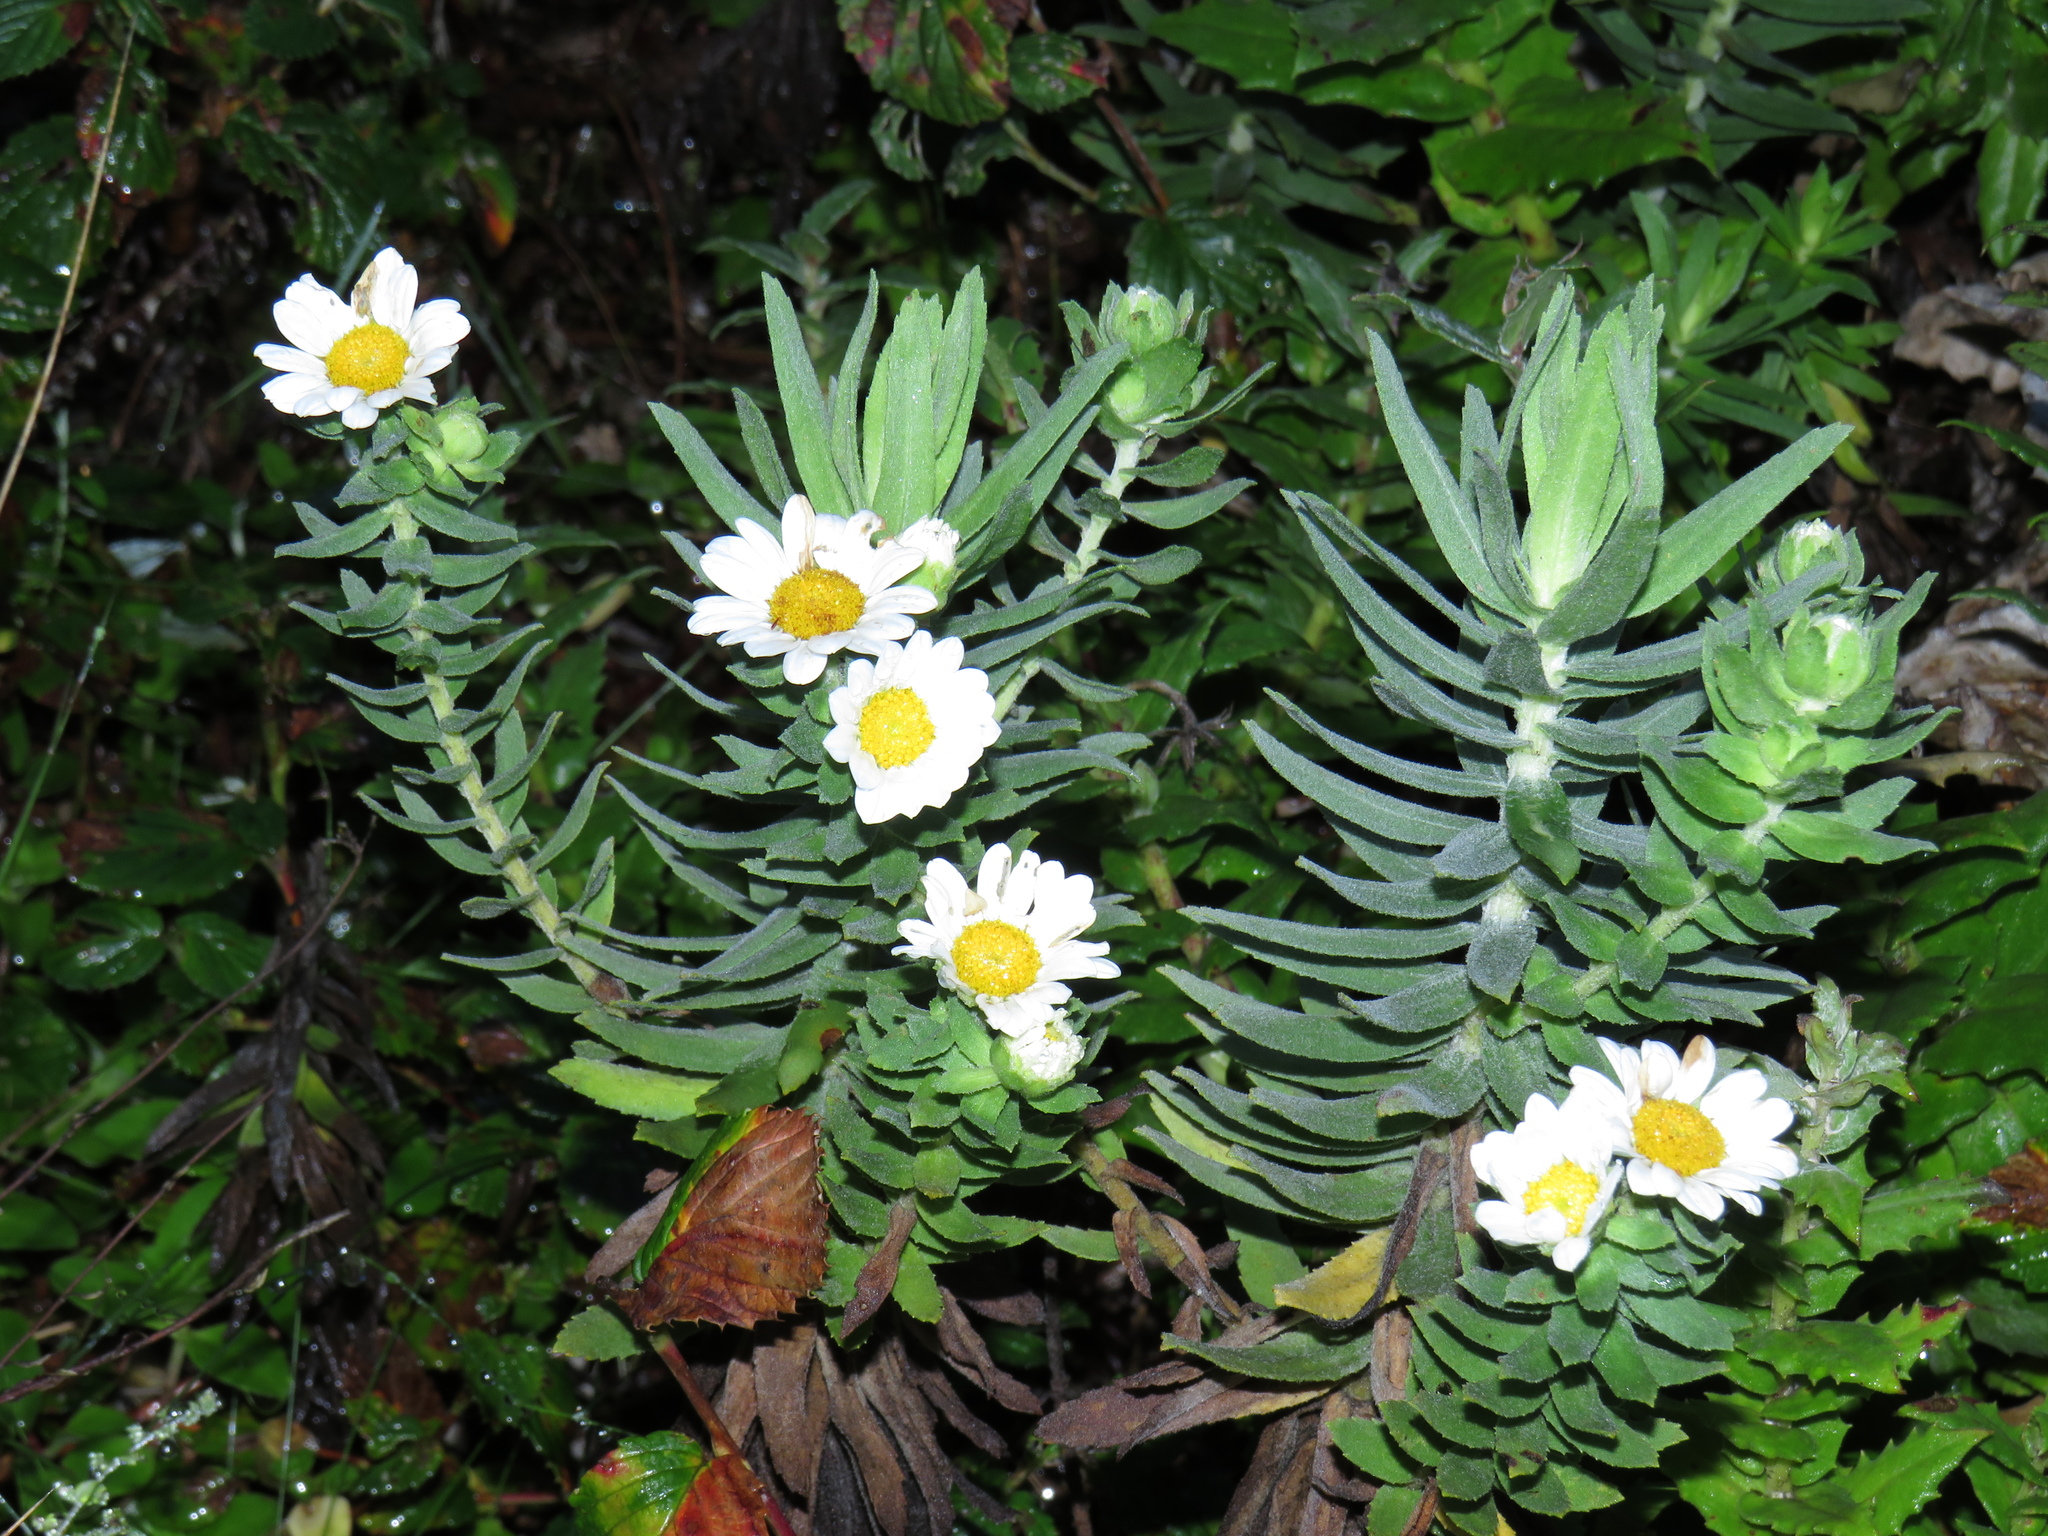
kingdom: Plantae
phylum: Tracheophyta
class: Magnoliopsida
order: Asterales
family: Asteraceae
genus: Osmitopsis
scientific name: Osmitopsis asteriscoides
